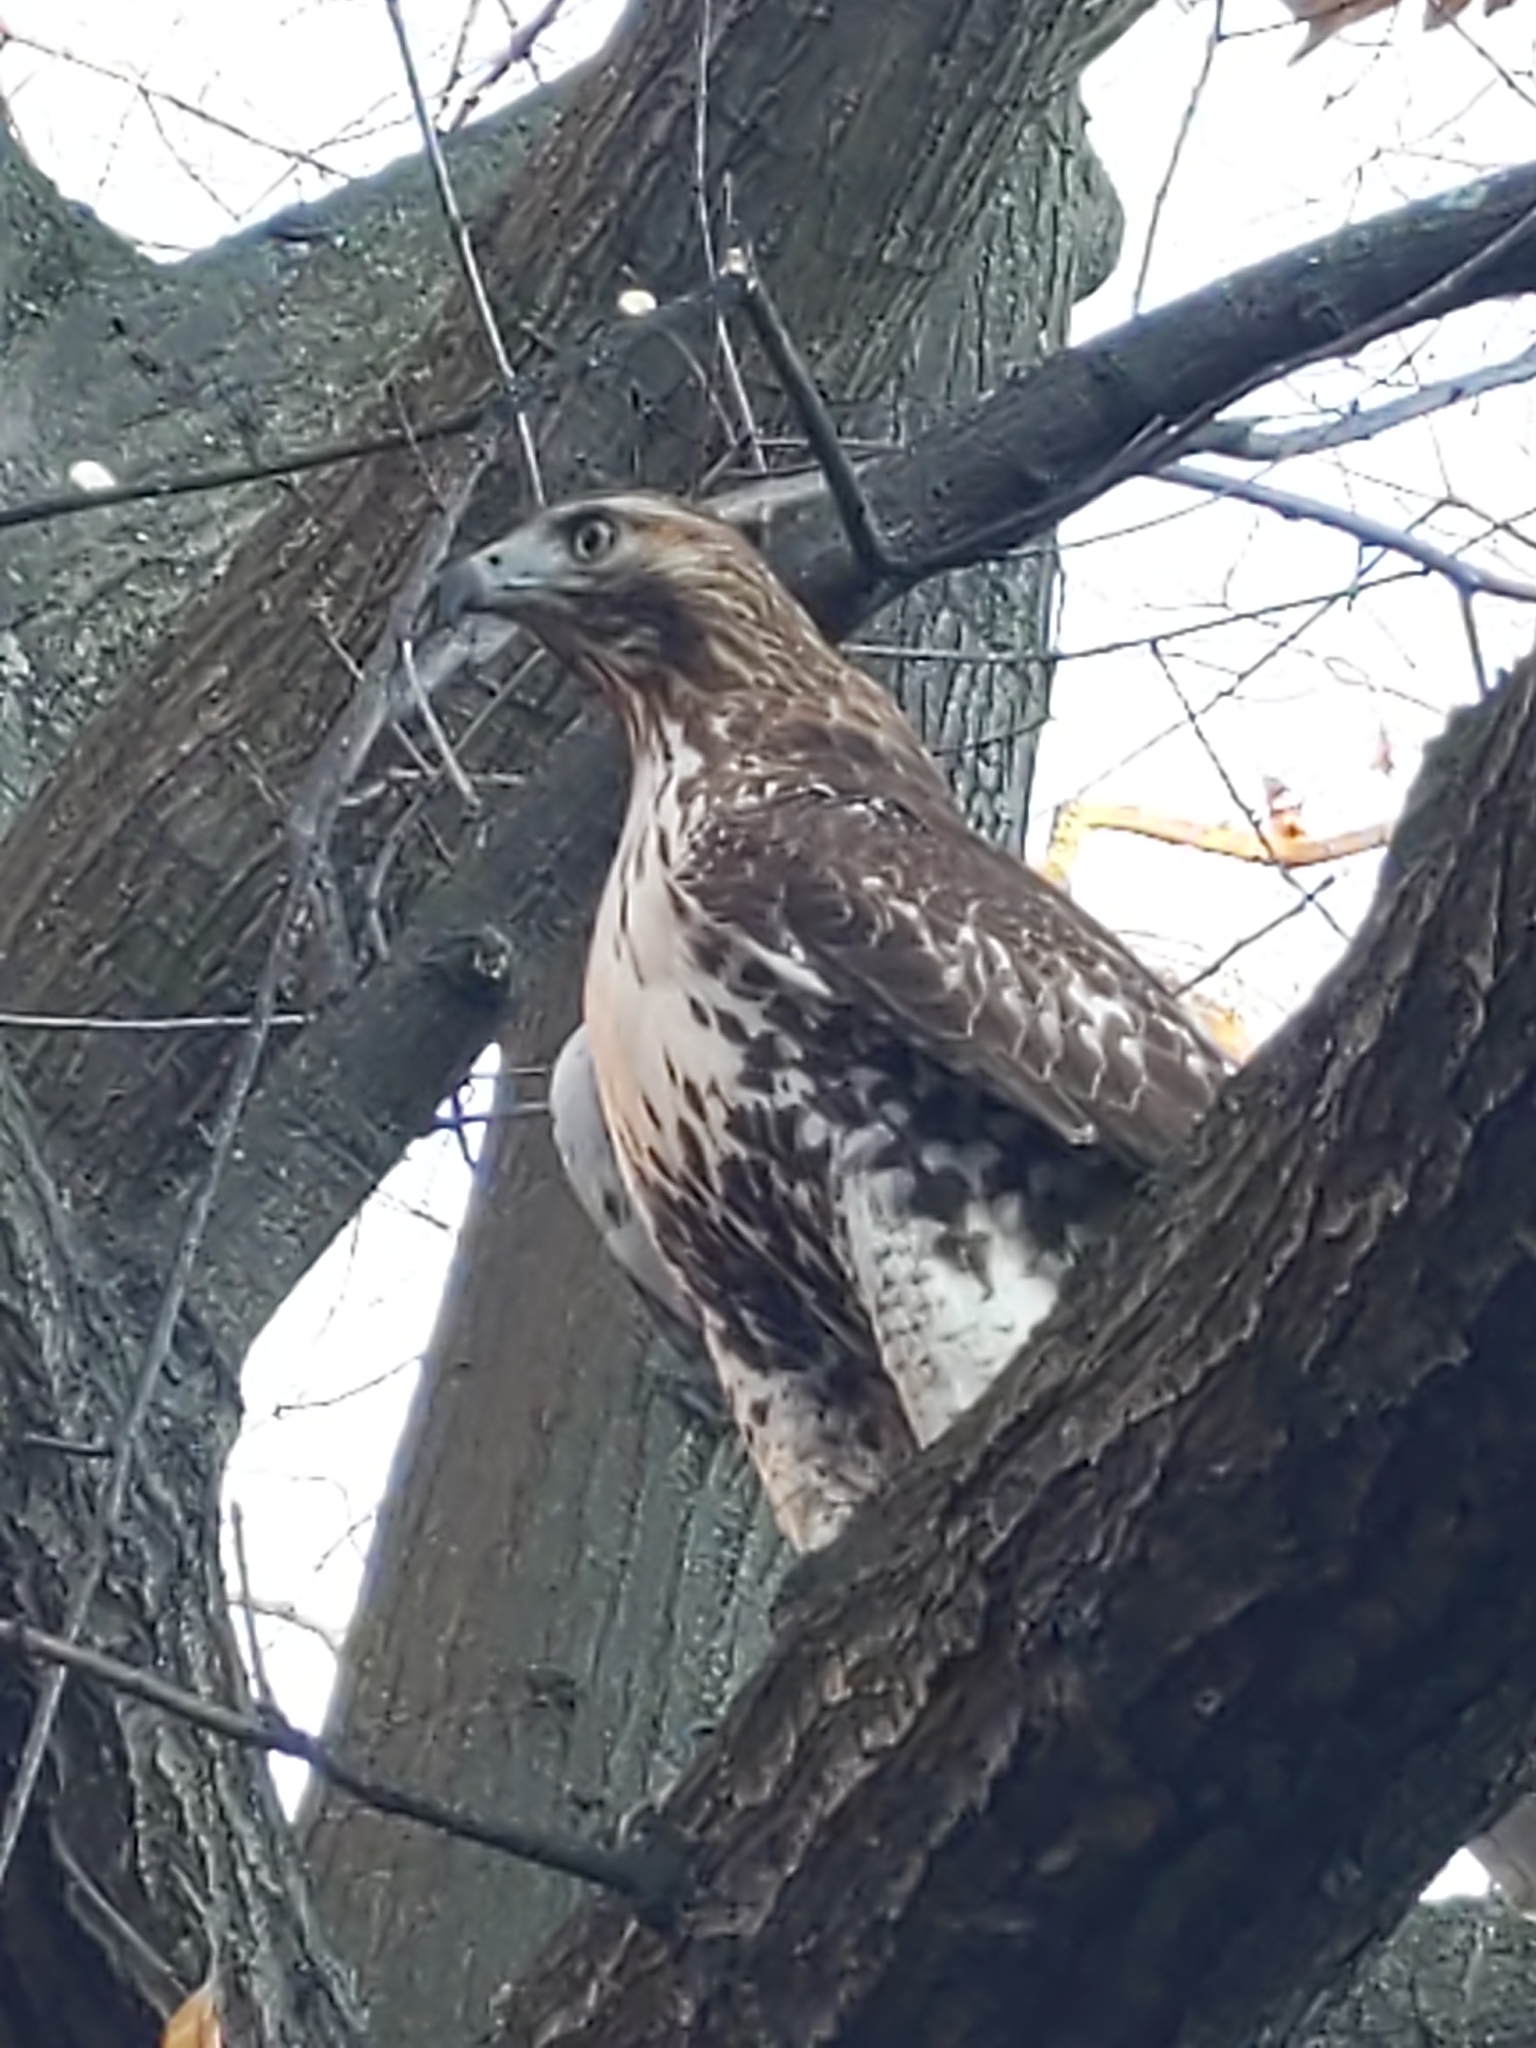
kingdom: Animalia
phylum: Chordata
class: Aves
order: Accipitriformes
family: Accipitridae
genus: Buteo
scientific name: Buteo jamaicensis
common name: Red-tailed hawk
